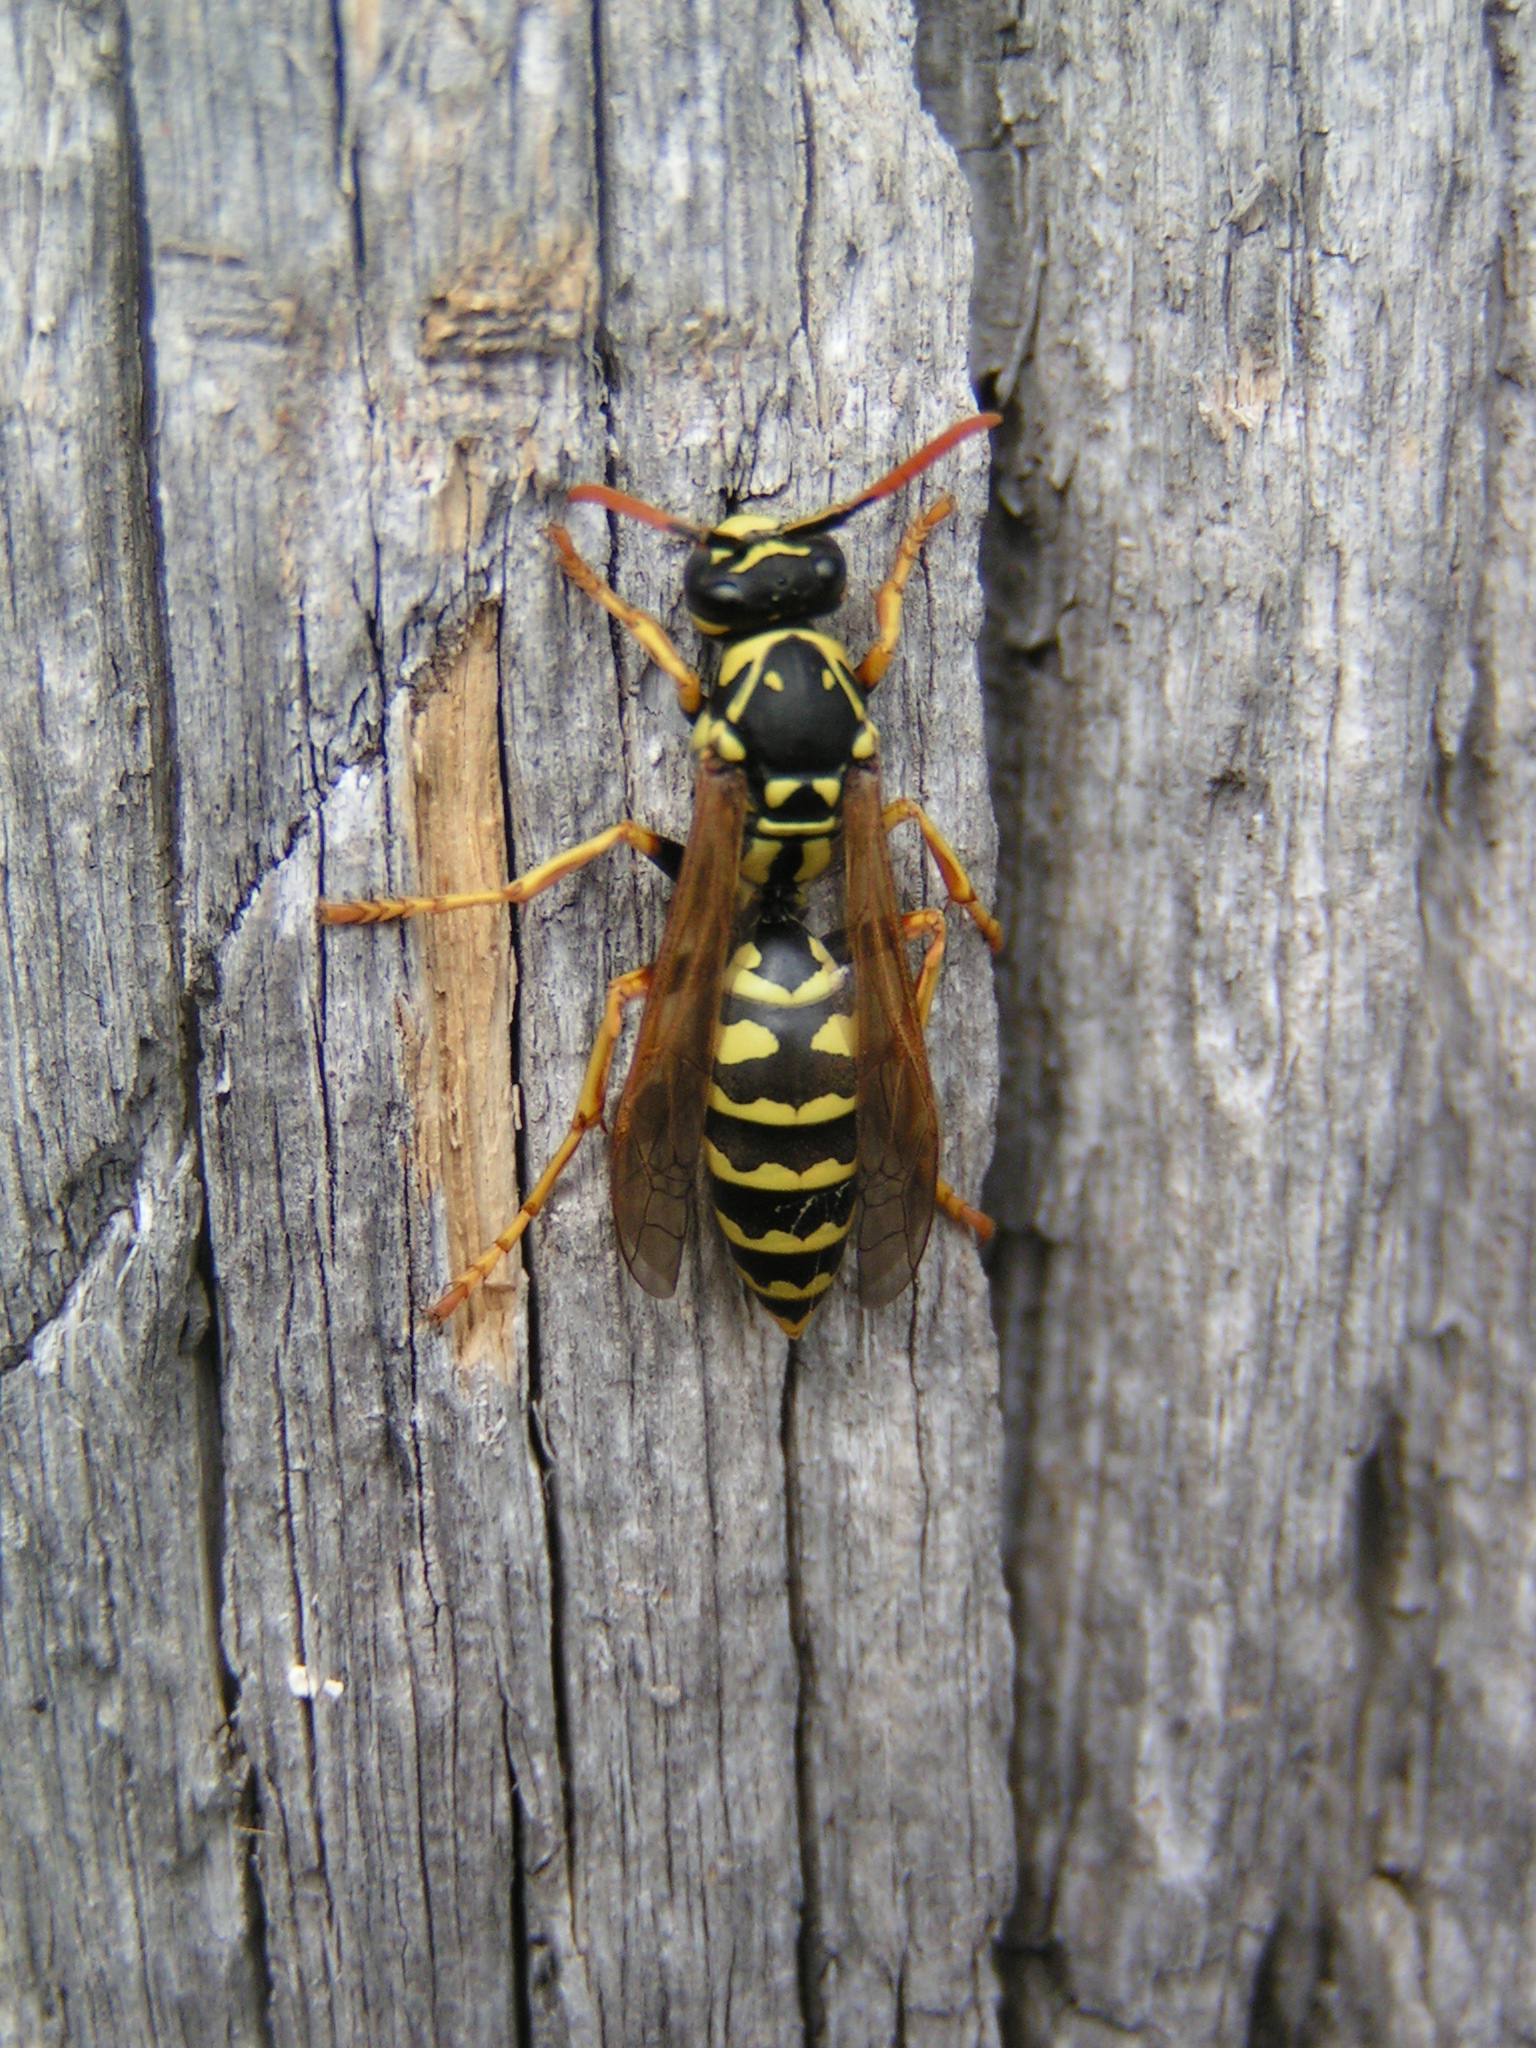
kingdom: Animalia
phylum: Arthropoda
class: Insecta
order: Hymenoptera
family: Eumenidae
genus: Polistes
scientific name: Polistes dominula
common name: Paper wasp
